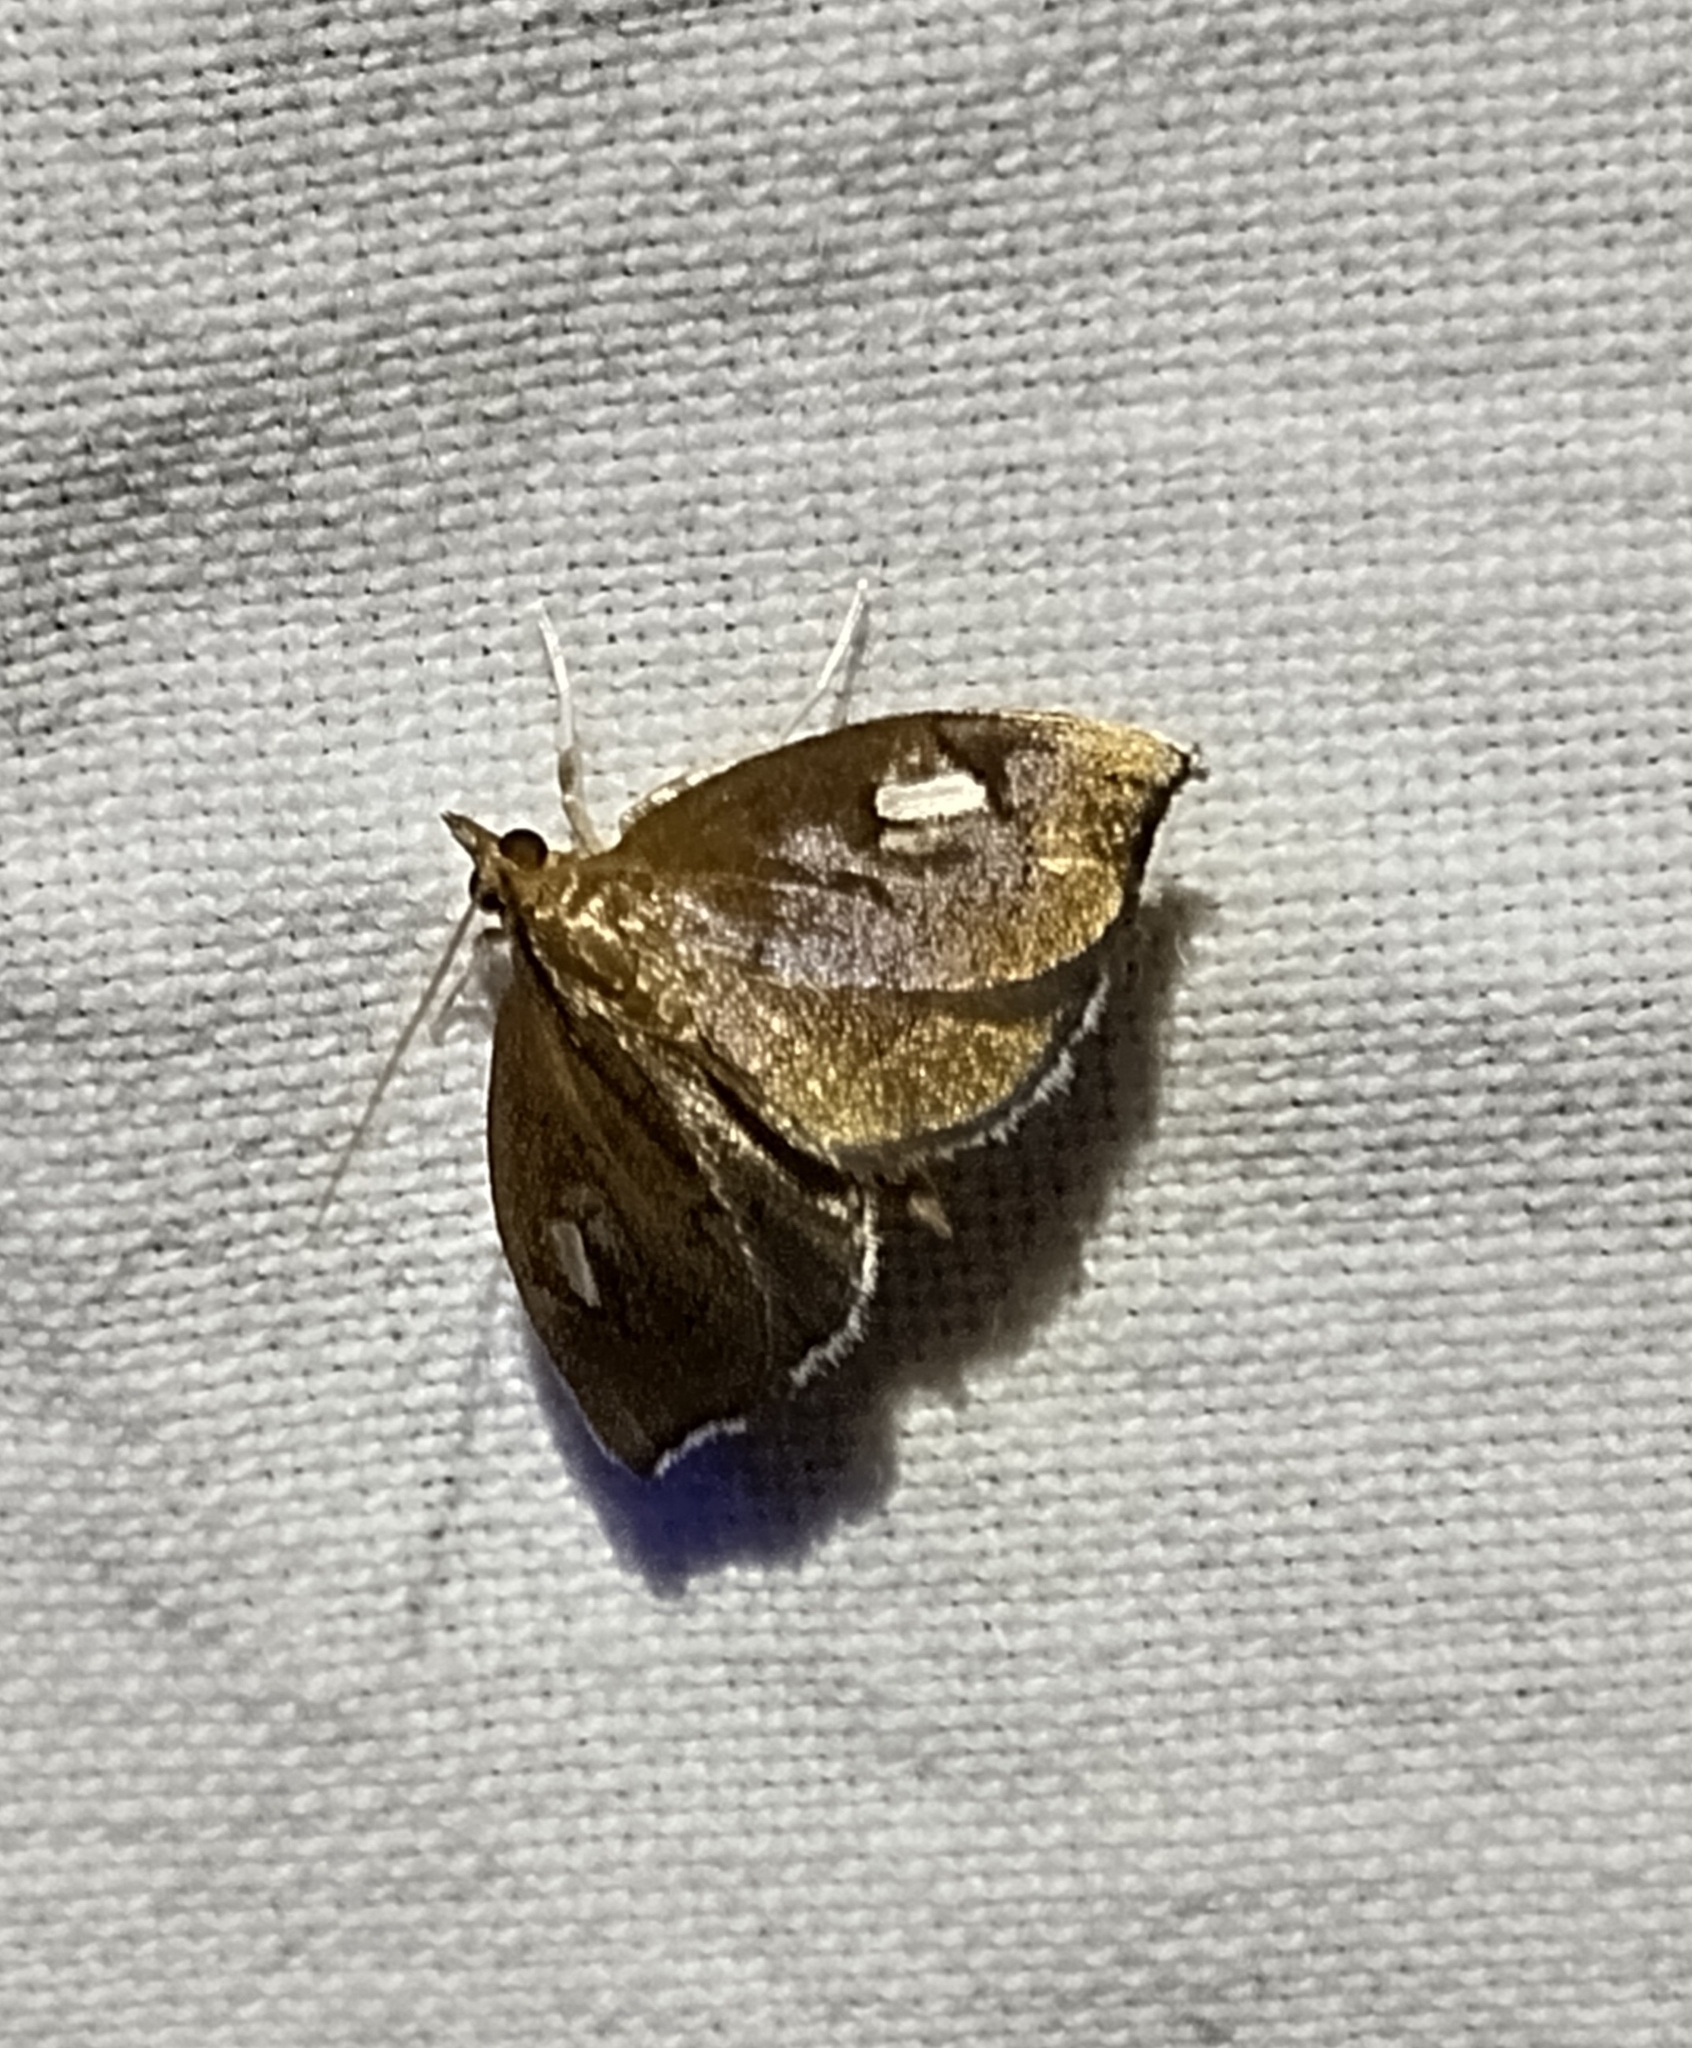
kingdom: Animalia
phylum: Arthropoda
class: Insecta
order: Lepidoptera
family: Crambidae
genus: Perispasta
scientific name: Perispasta caeculalis
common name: Titian peale's moth
